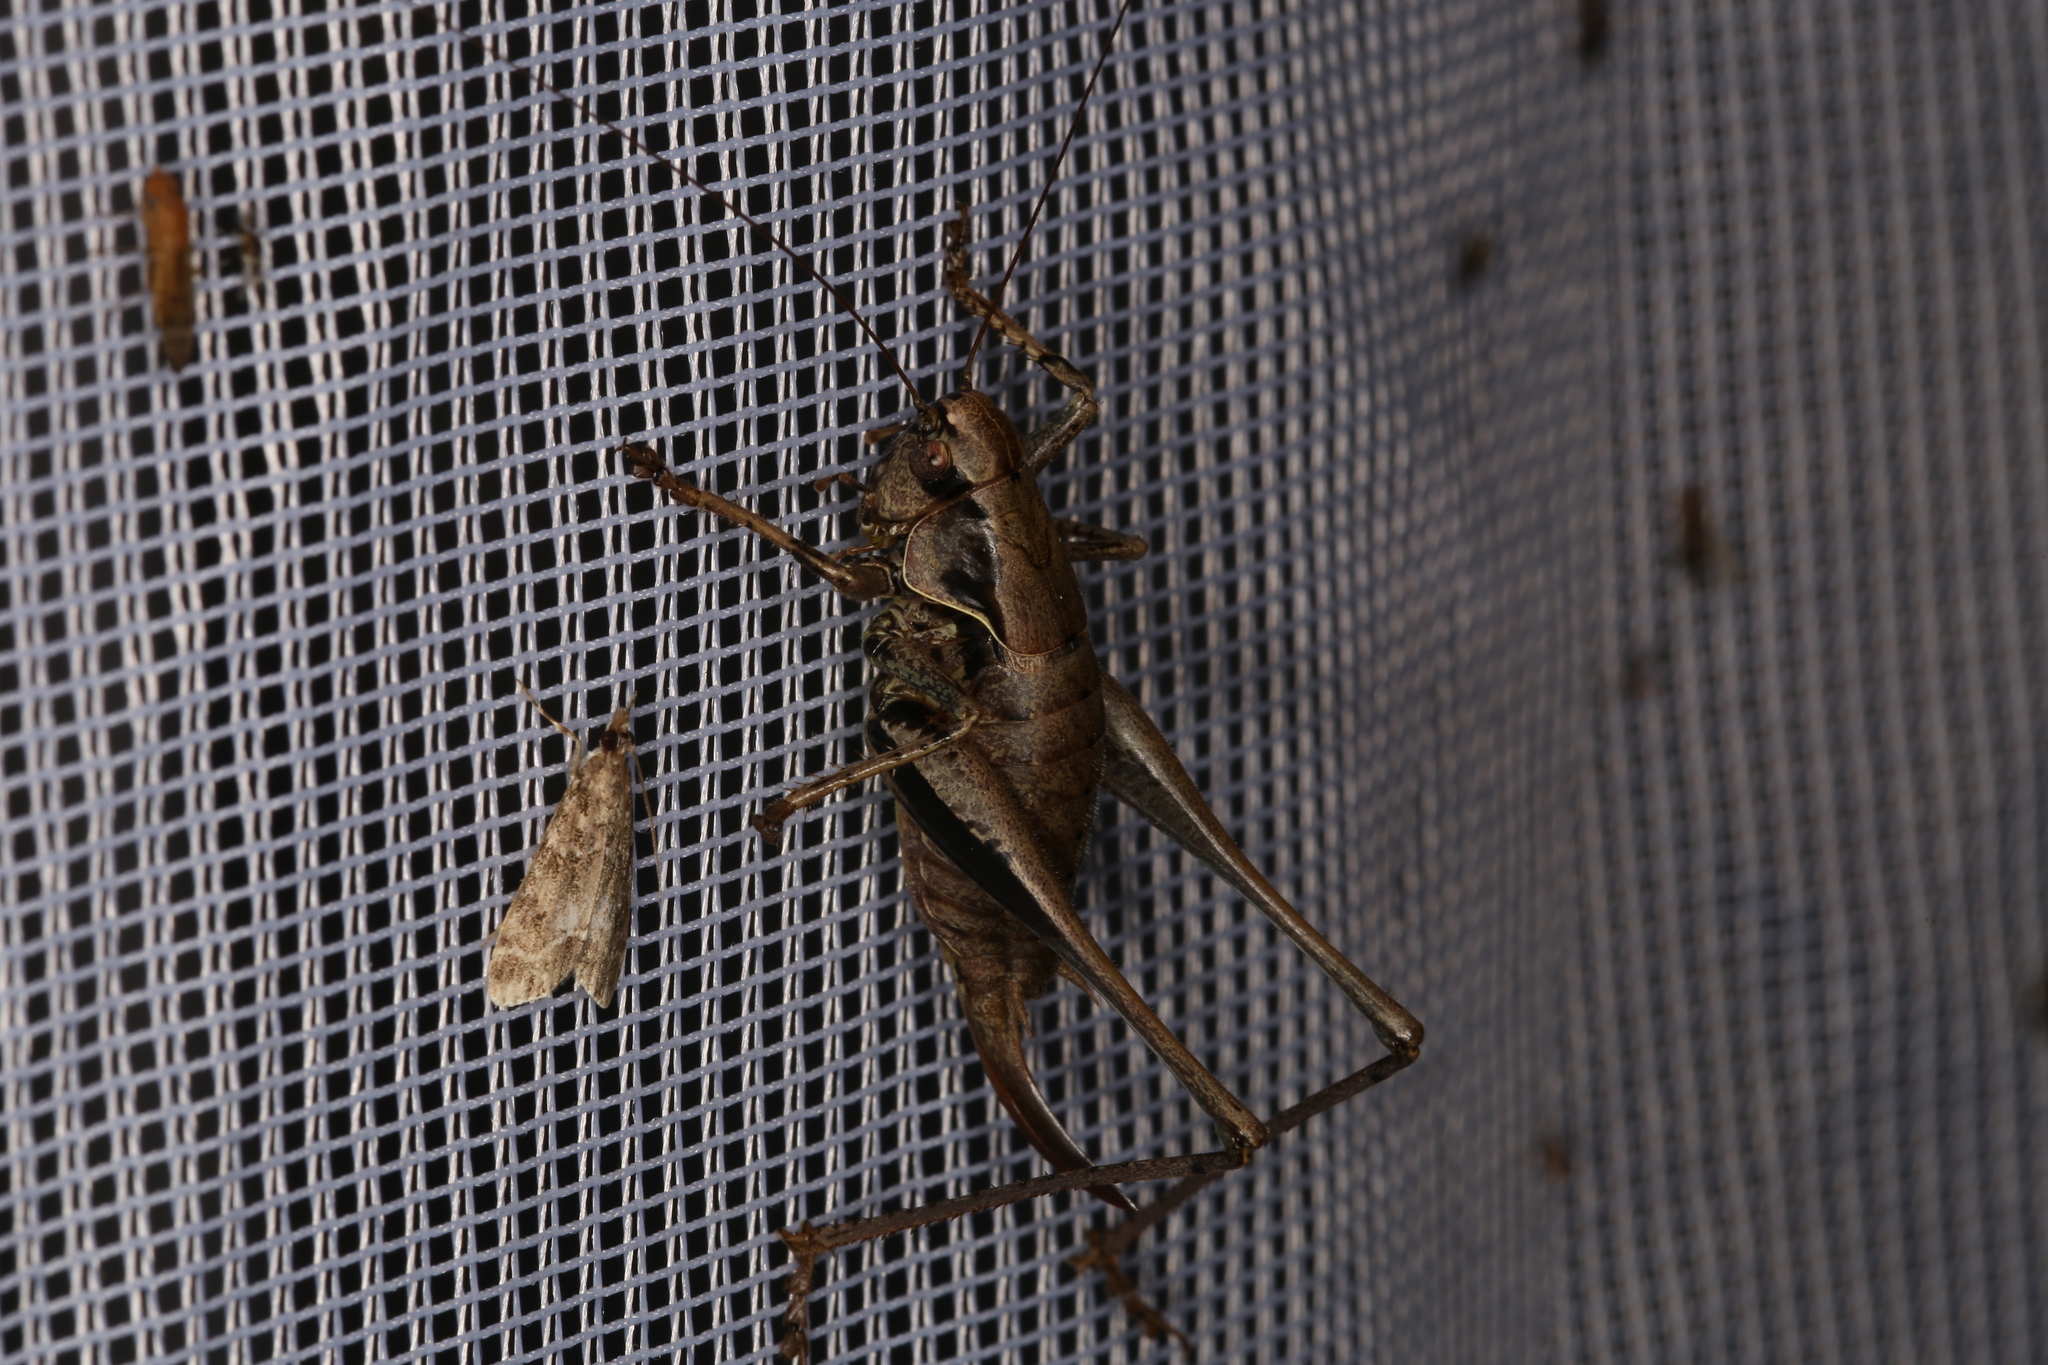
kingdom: Animalia
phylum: Arthropoda
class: Insecta
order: Orthoptera
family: Tettigoniidae
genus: Pholidoptera
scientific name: Pholidoptera griseoaptera
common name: Dark bush-cricket
